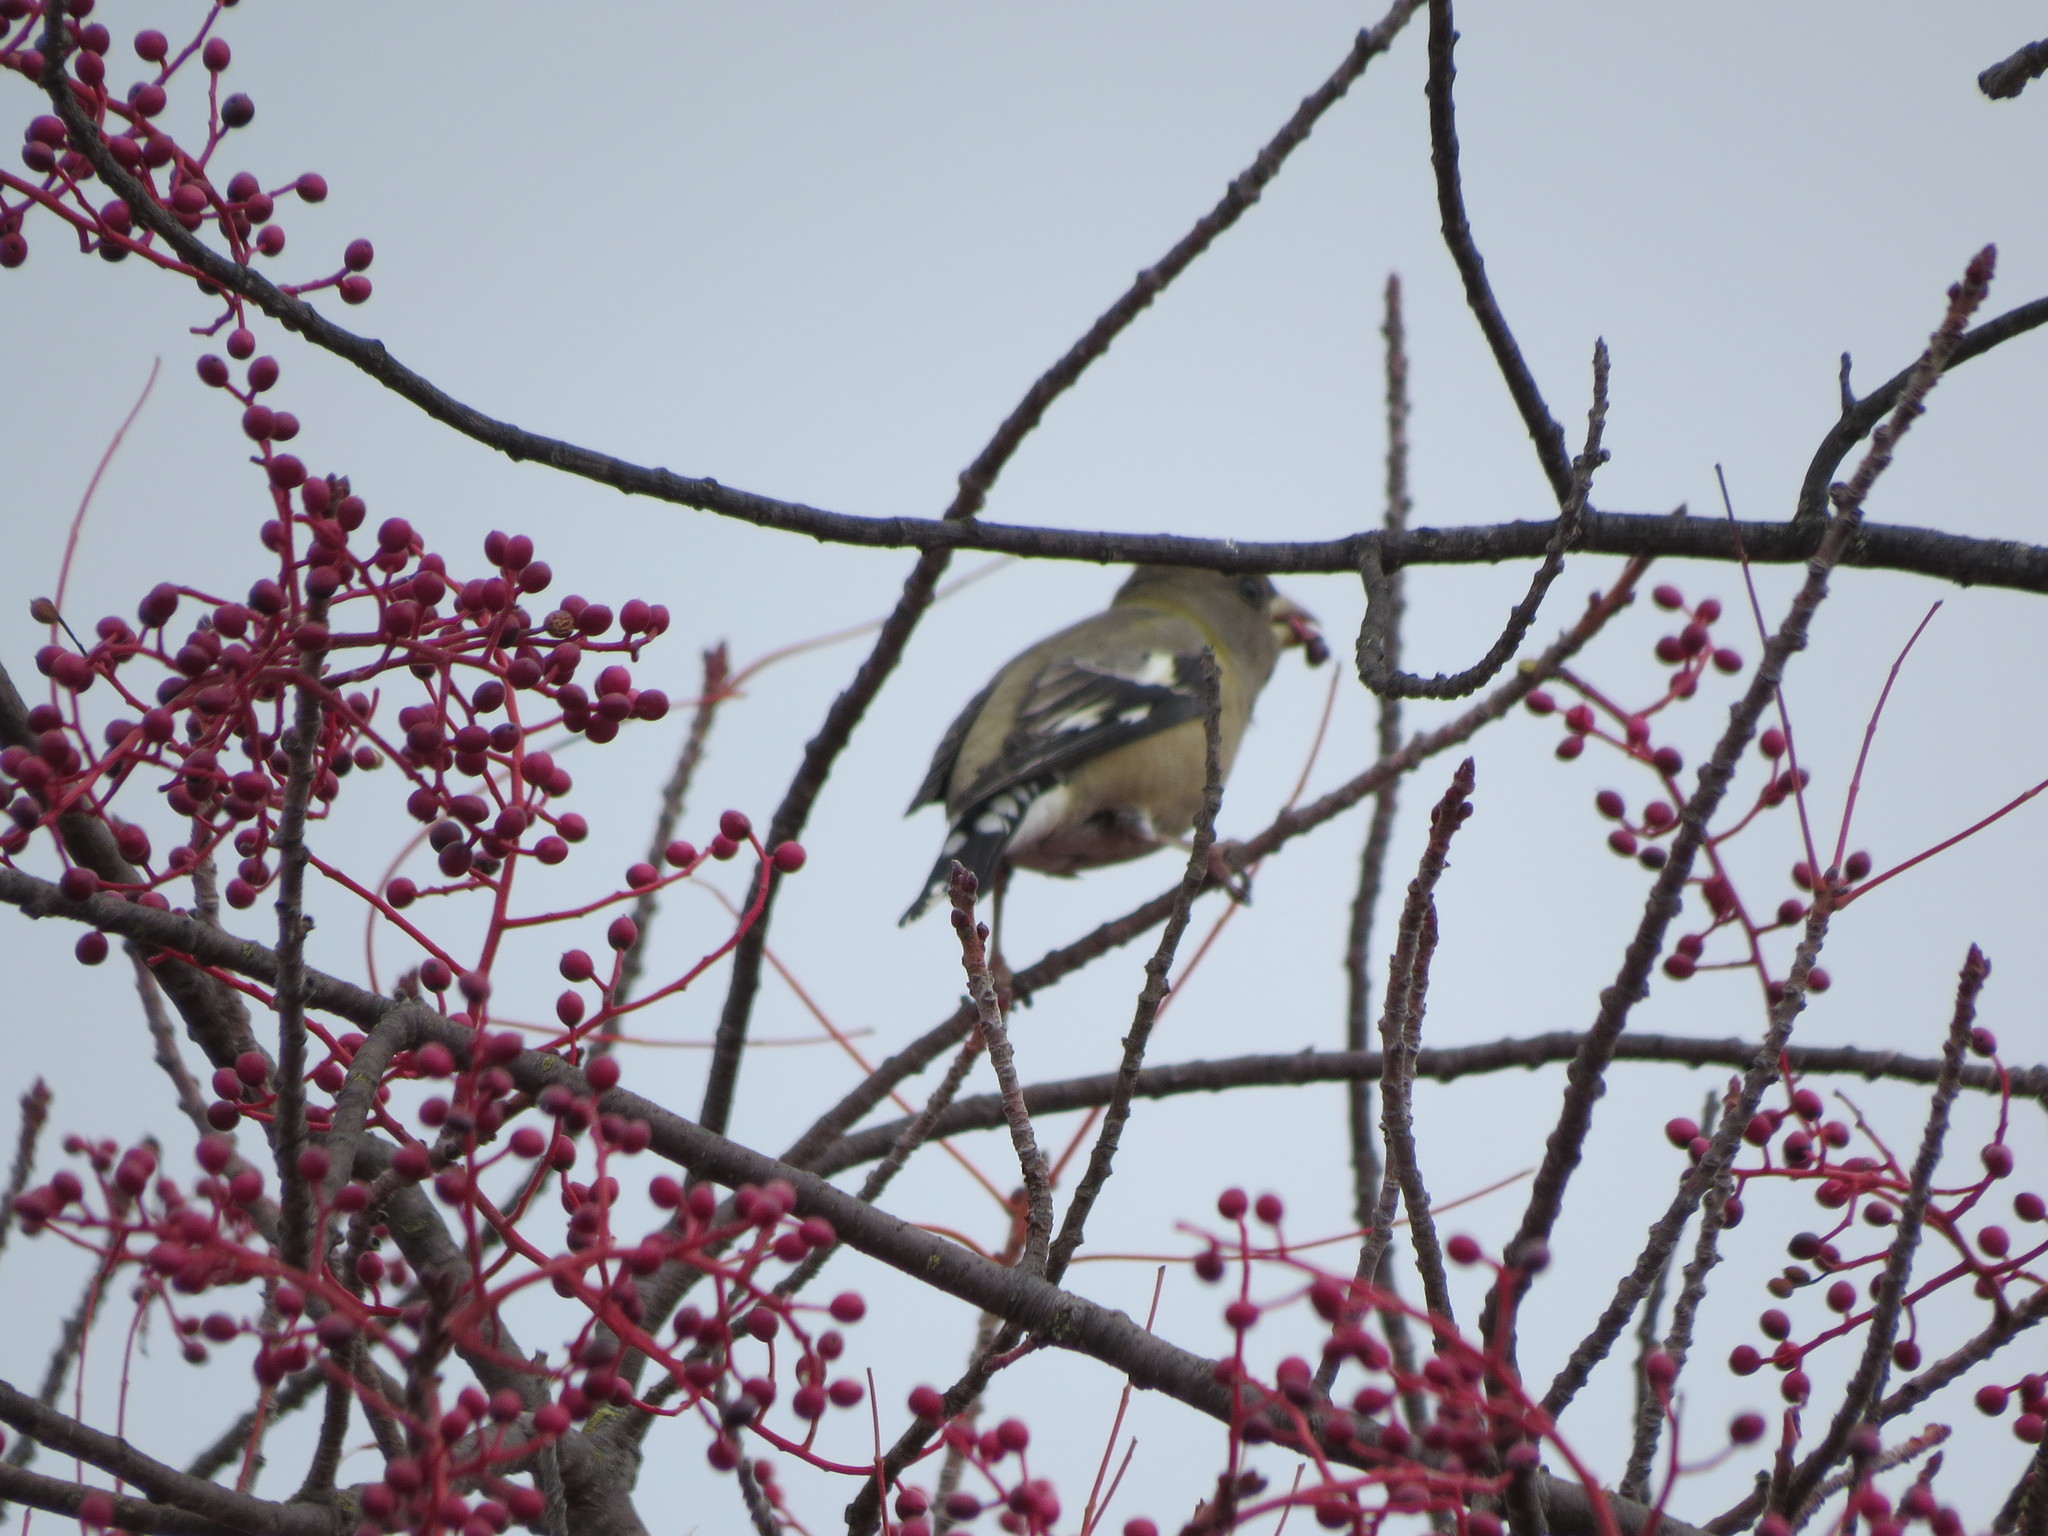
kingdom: Animalia
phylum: Chordata
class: Aves
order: Passeriformes
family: Fringillidae
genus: Hesperiphona
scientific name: Hesperiphona vespertina
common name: Evening grosbeak
